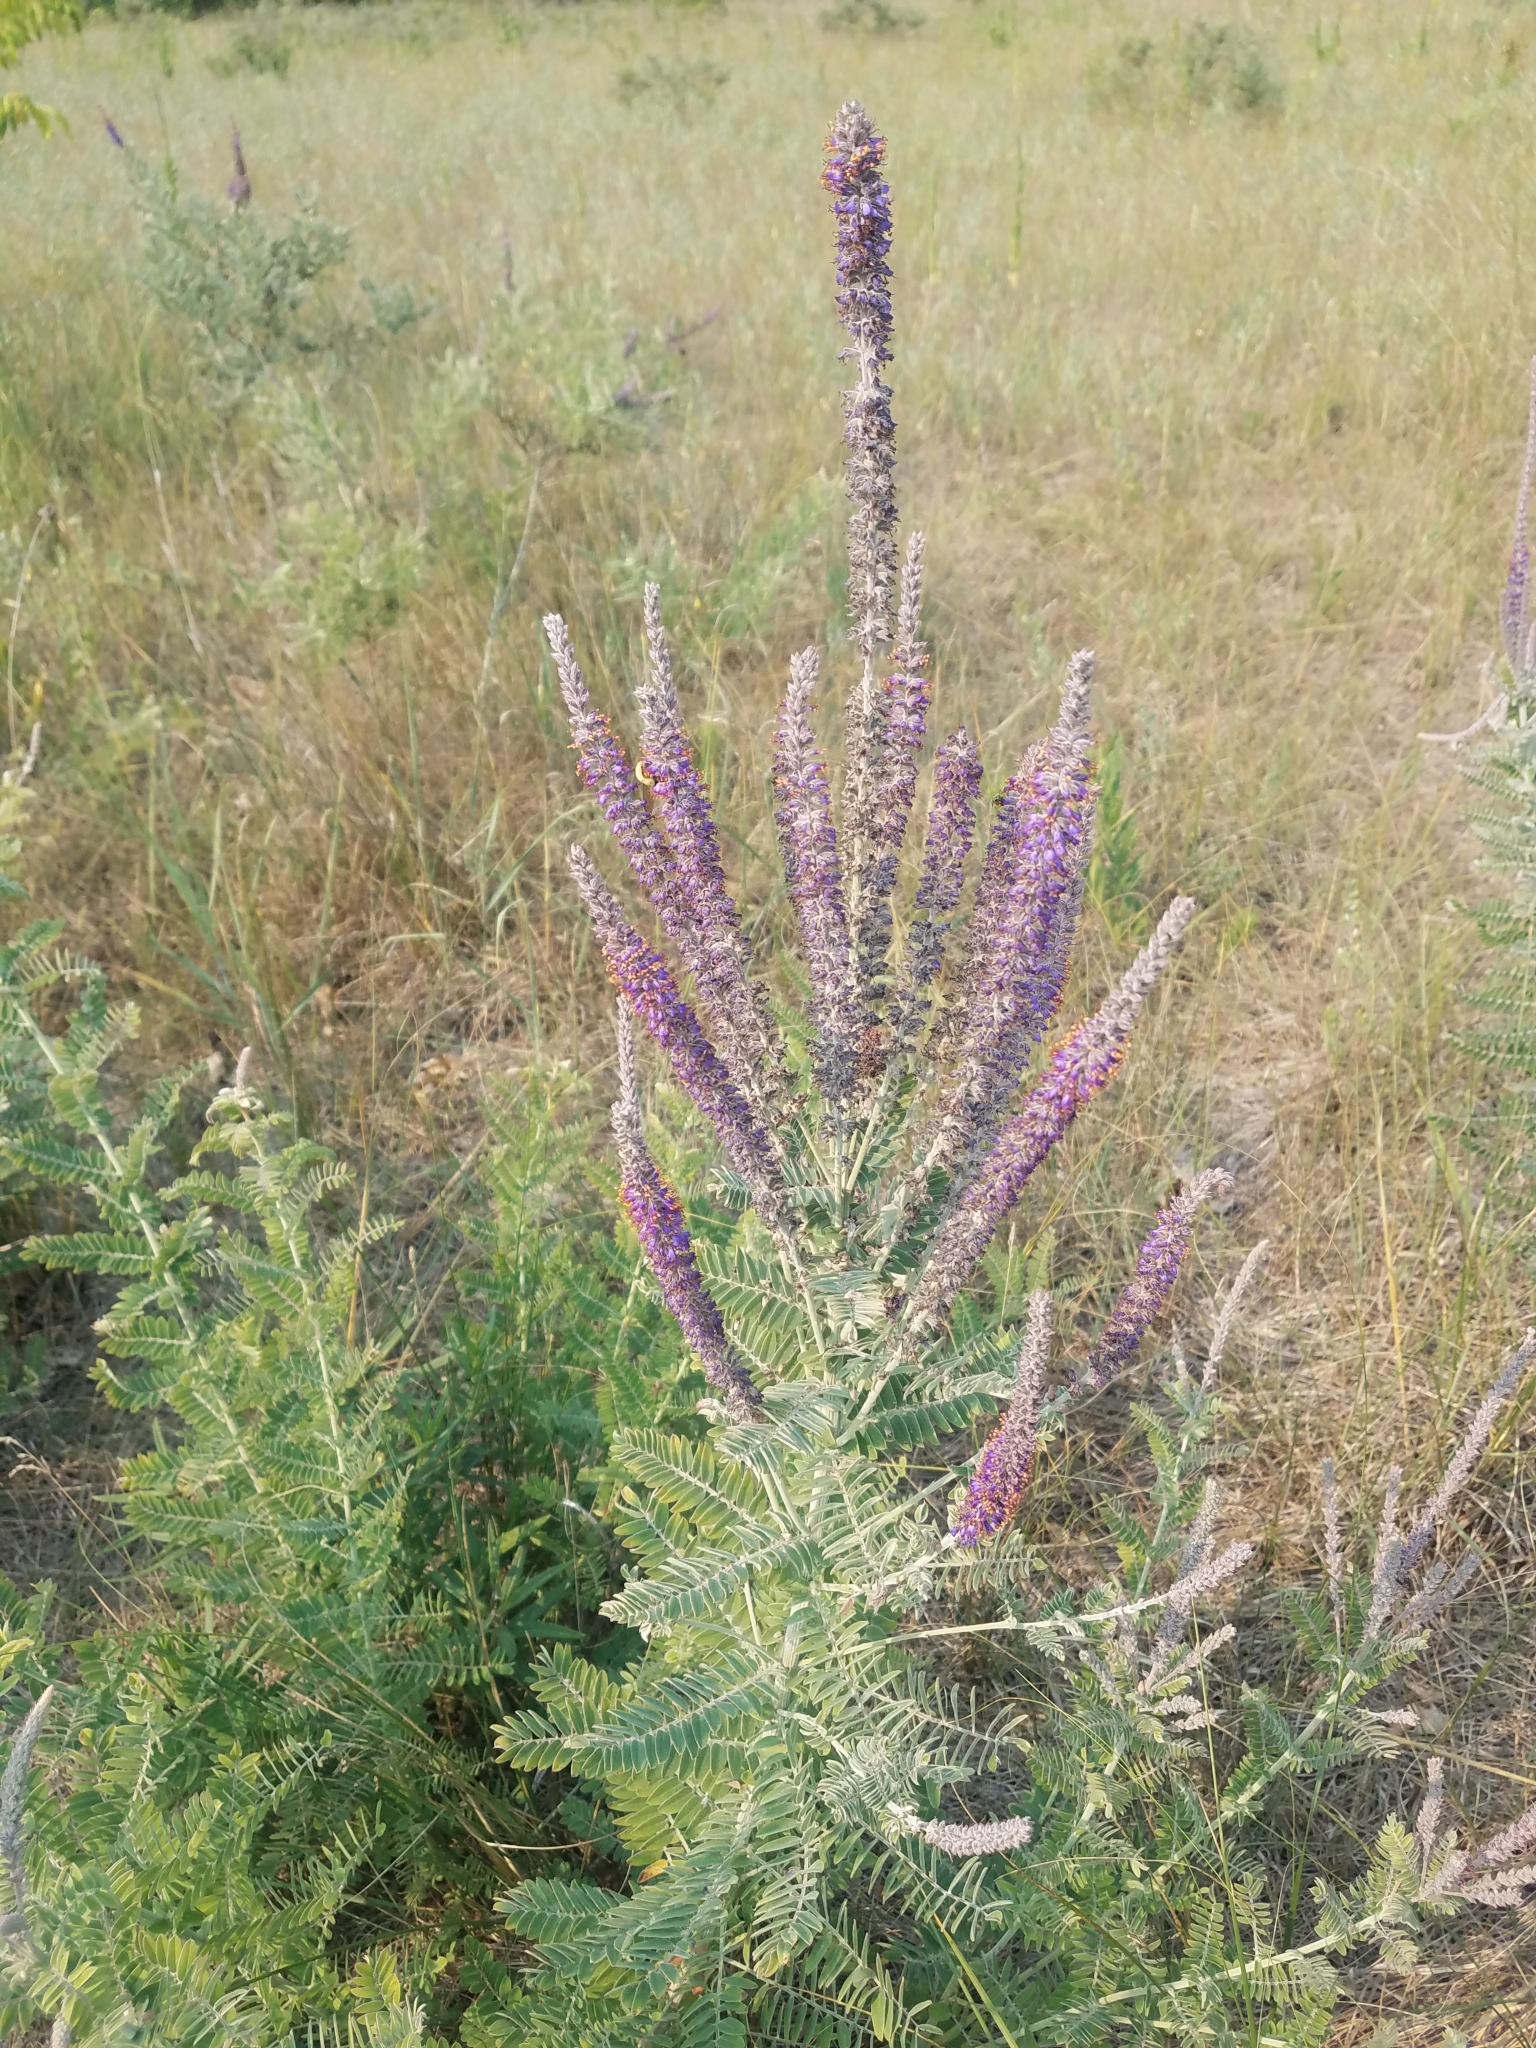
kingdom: Plantae
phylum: Tracheophyta
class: Magnoliopsida
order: Fabales
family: Fabaceae
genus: Amorpha
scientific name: Amorpha canescens
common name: Leadplant
